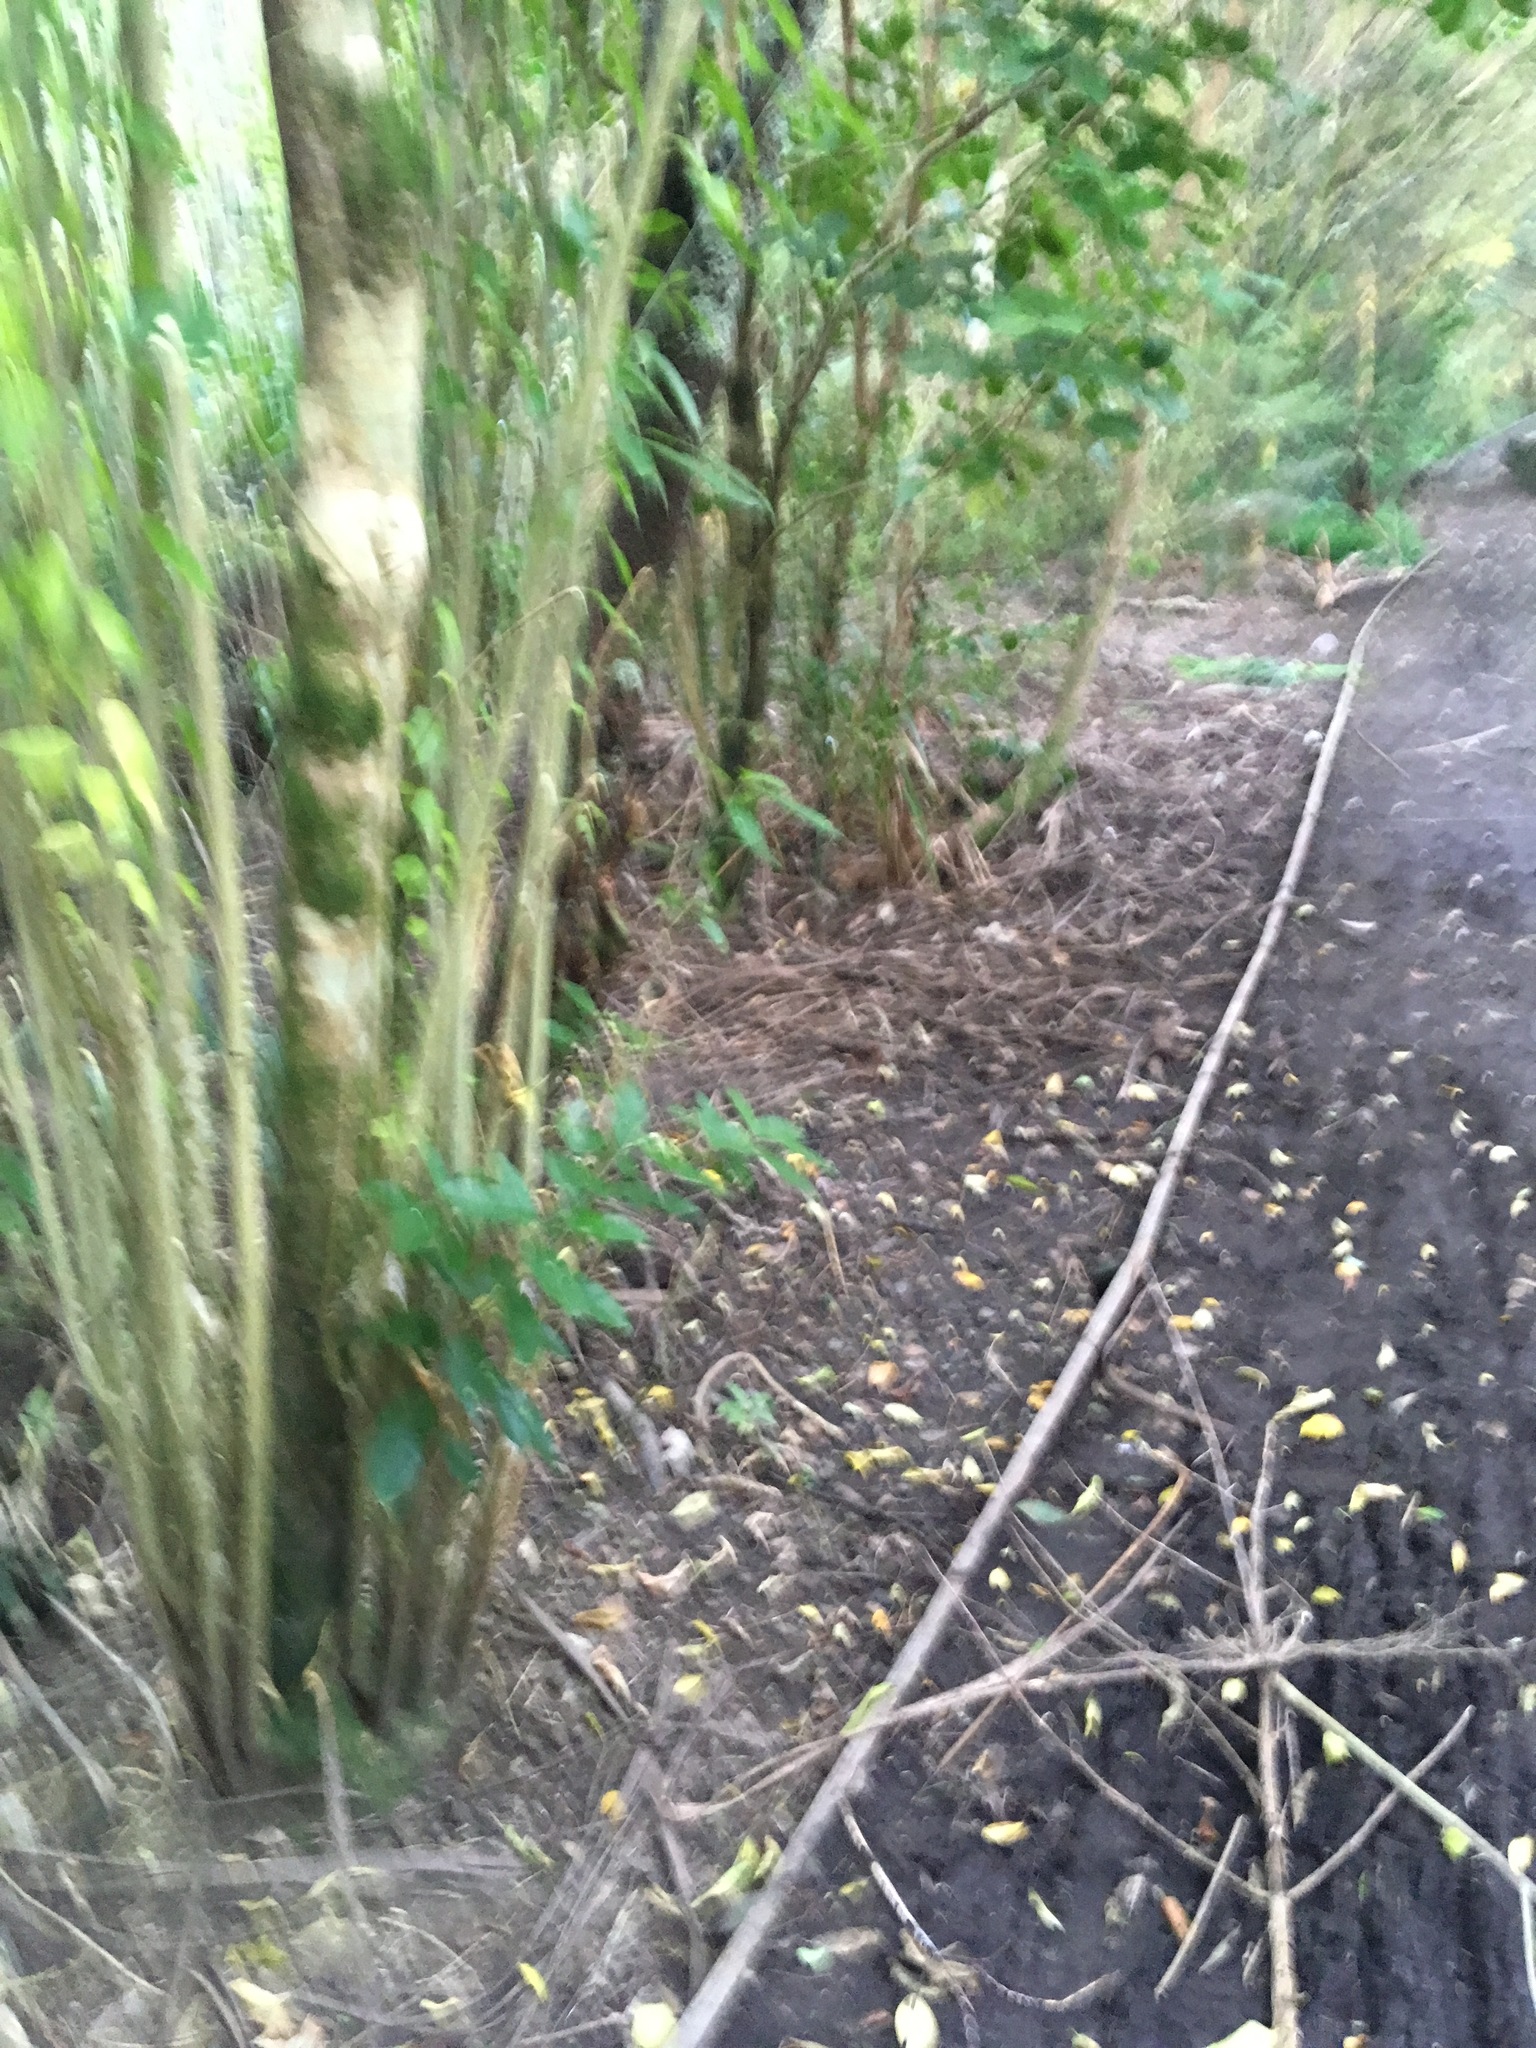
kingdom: Plantae
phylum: Tracheophyta
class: Magnoliopsida
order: Malpighiales
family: Violaceae
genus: Melicytus
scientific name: Melicytus ramiflorus
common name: Mahoe
